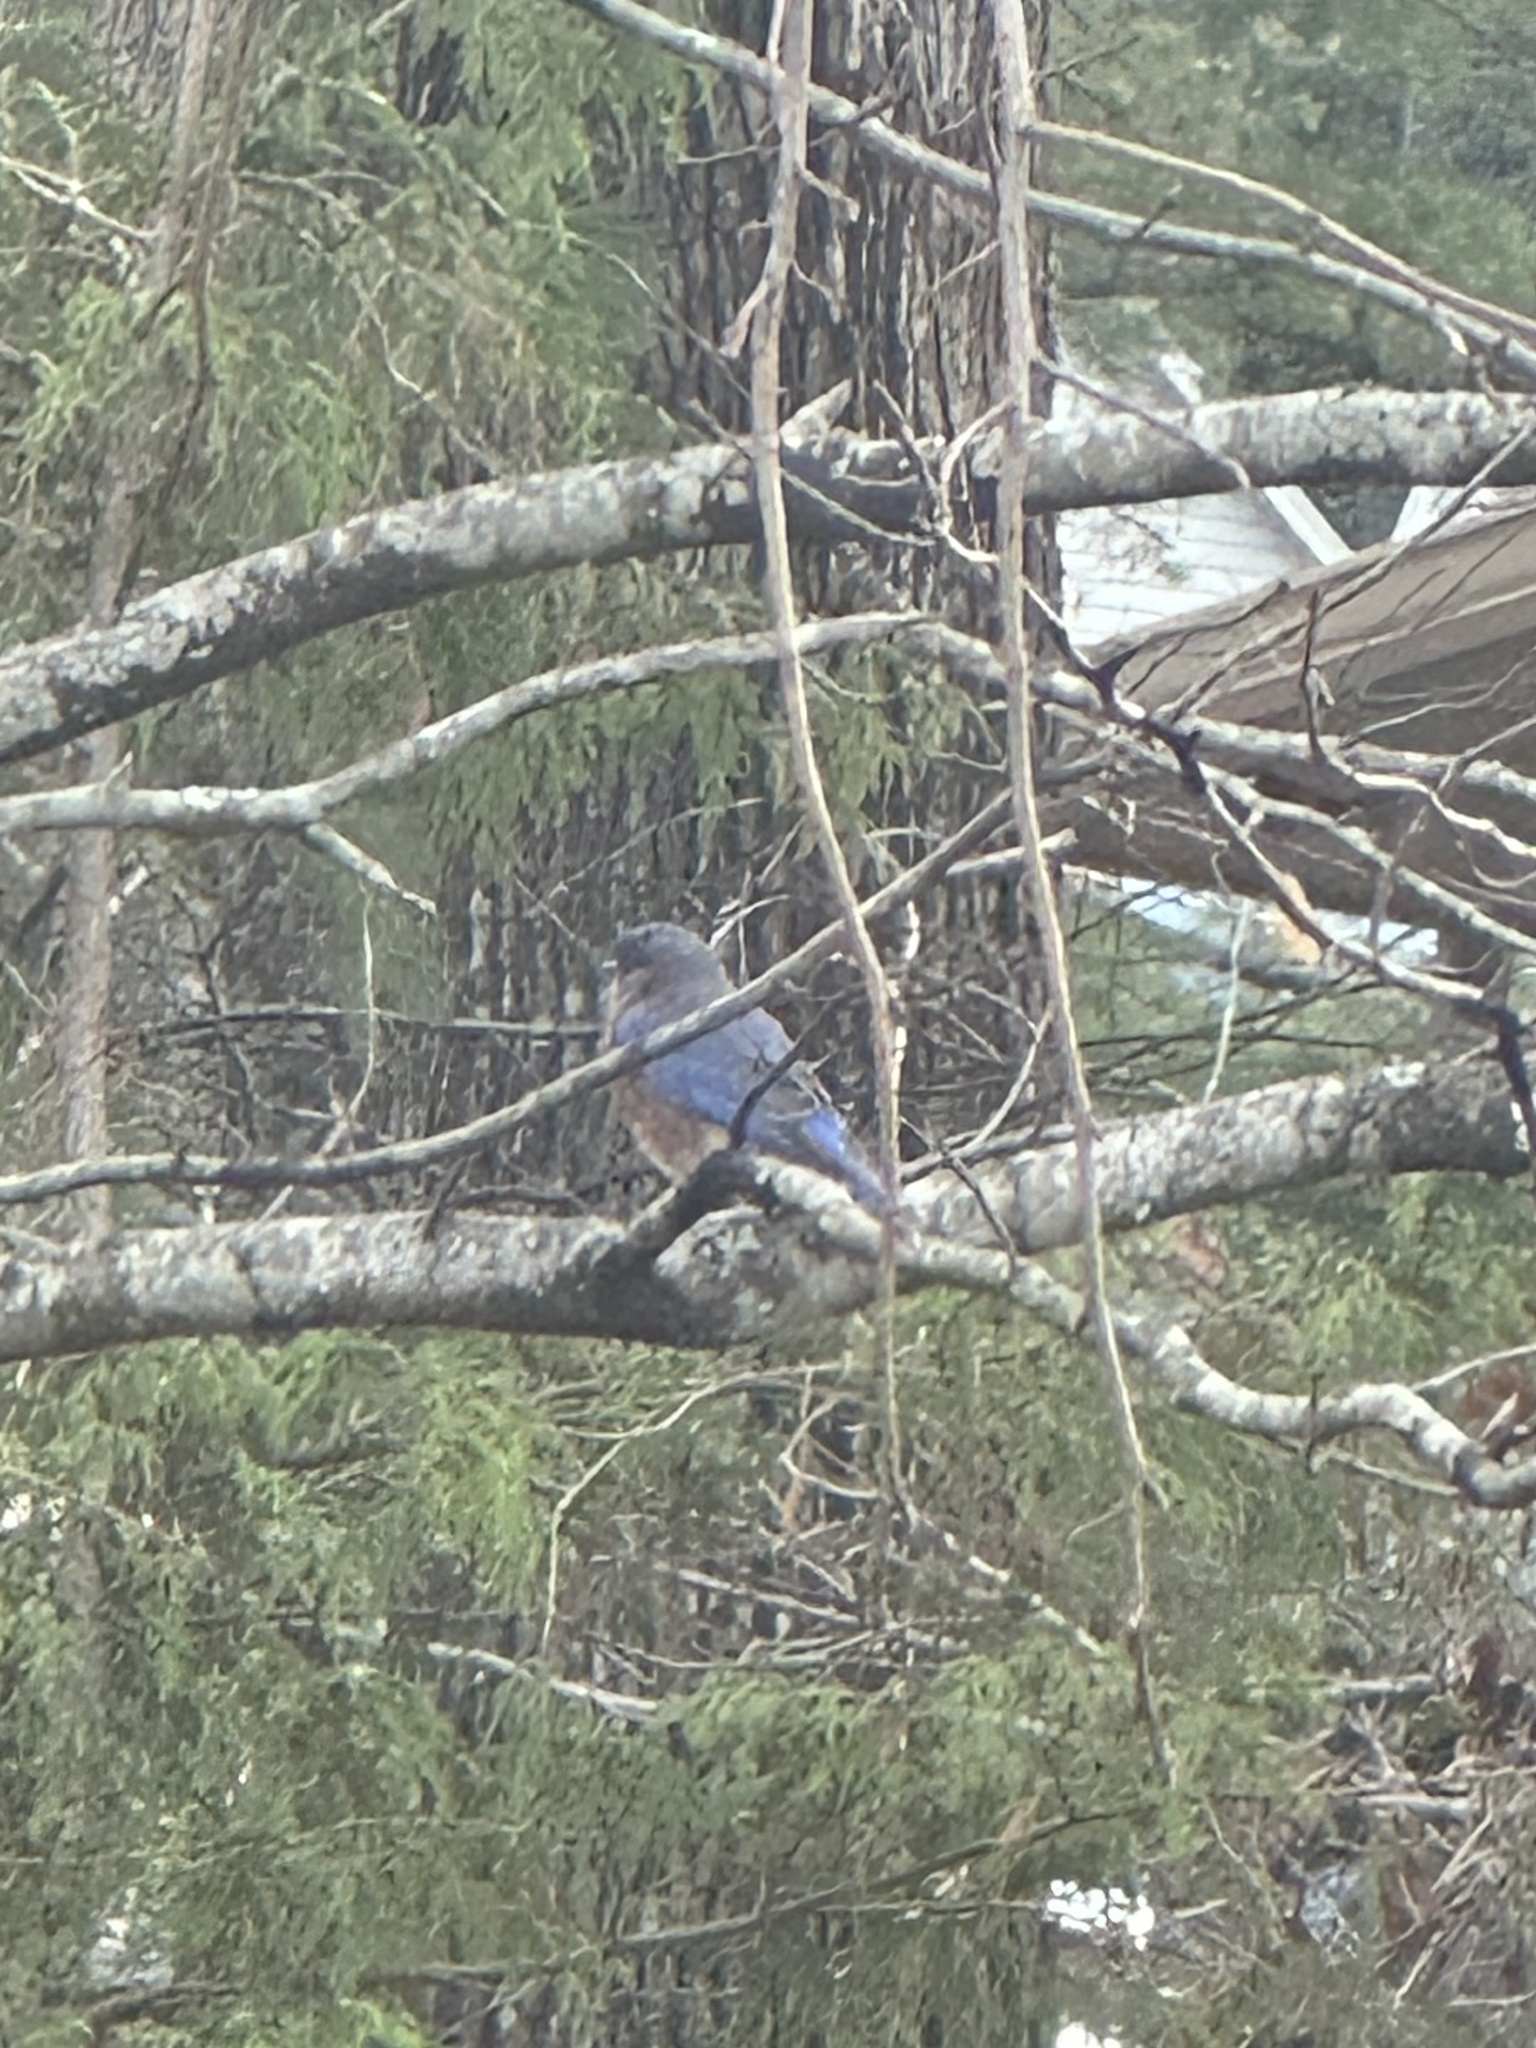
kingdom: Animalia
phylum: Chordata
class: Aves
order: Passeriformes
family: Turdidae
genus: Sialia
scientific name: Sialia sialis
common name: Eastern bluebird
